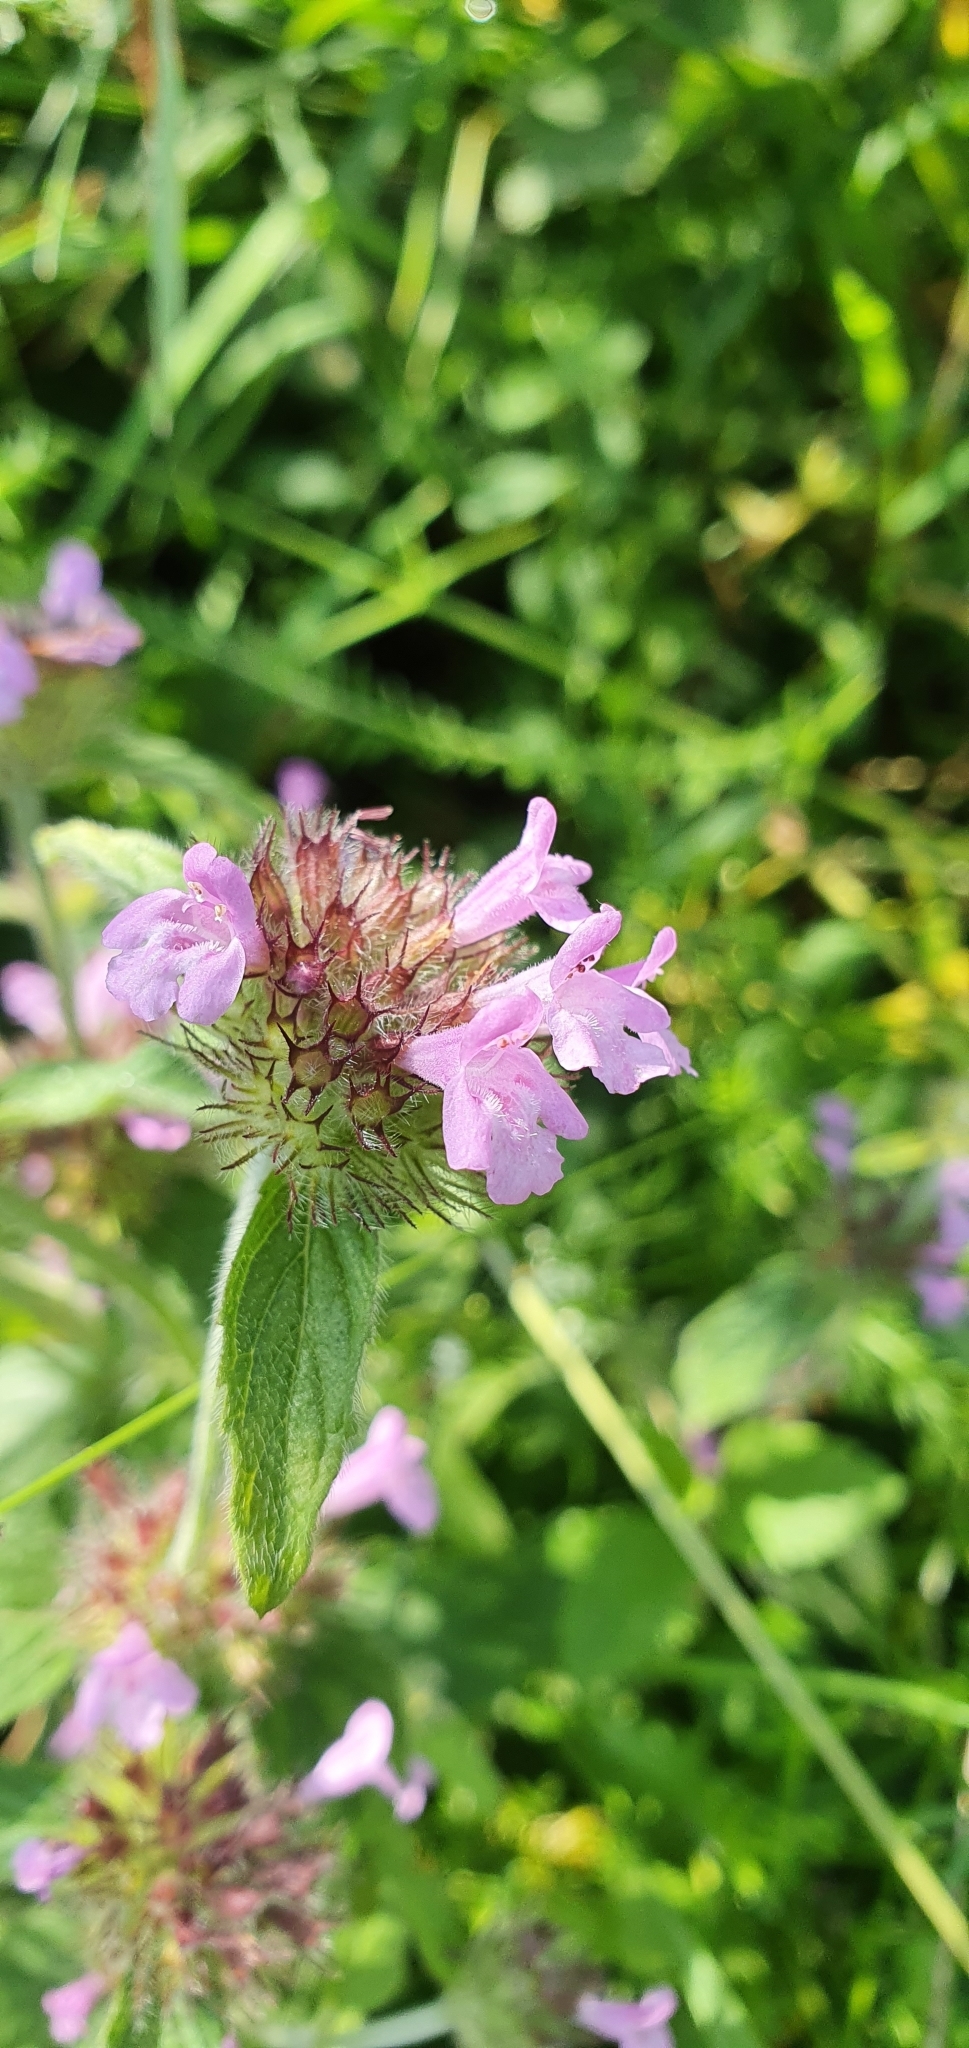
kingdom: Plantae
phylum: Tracheophyta
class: Magnoliopsida
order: Lamiales
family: Lamiaceae
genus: Clinopodium
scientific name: Clinopodium vulgare
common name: Wild basil
